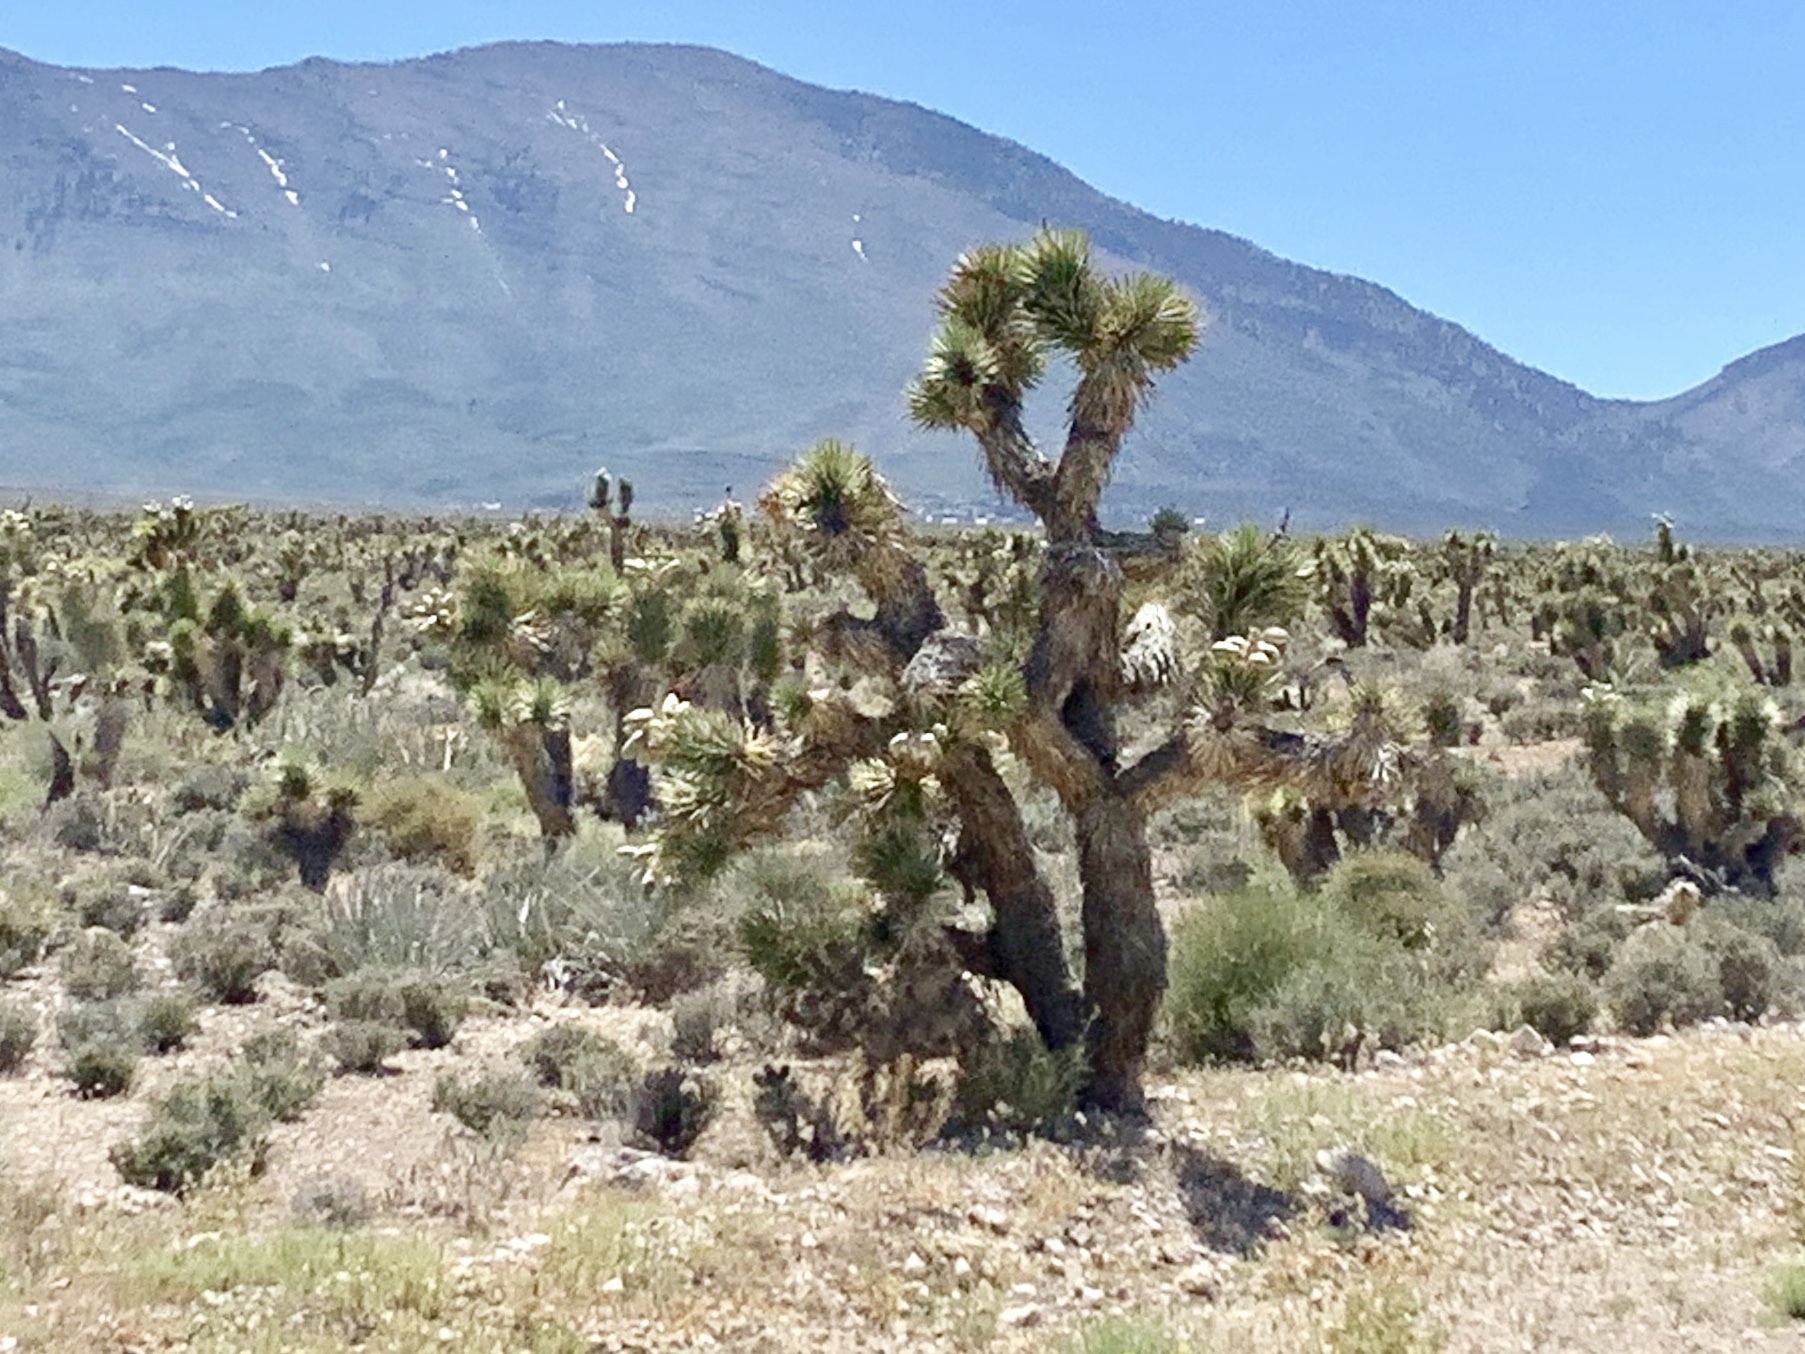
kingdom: Plantae
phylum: Tracheophyta
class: Liliopsida
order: Asparagales
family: Asparagaceae
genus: Yucca
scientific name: Yucca brevifolia
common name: Joshua tree
